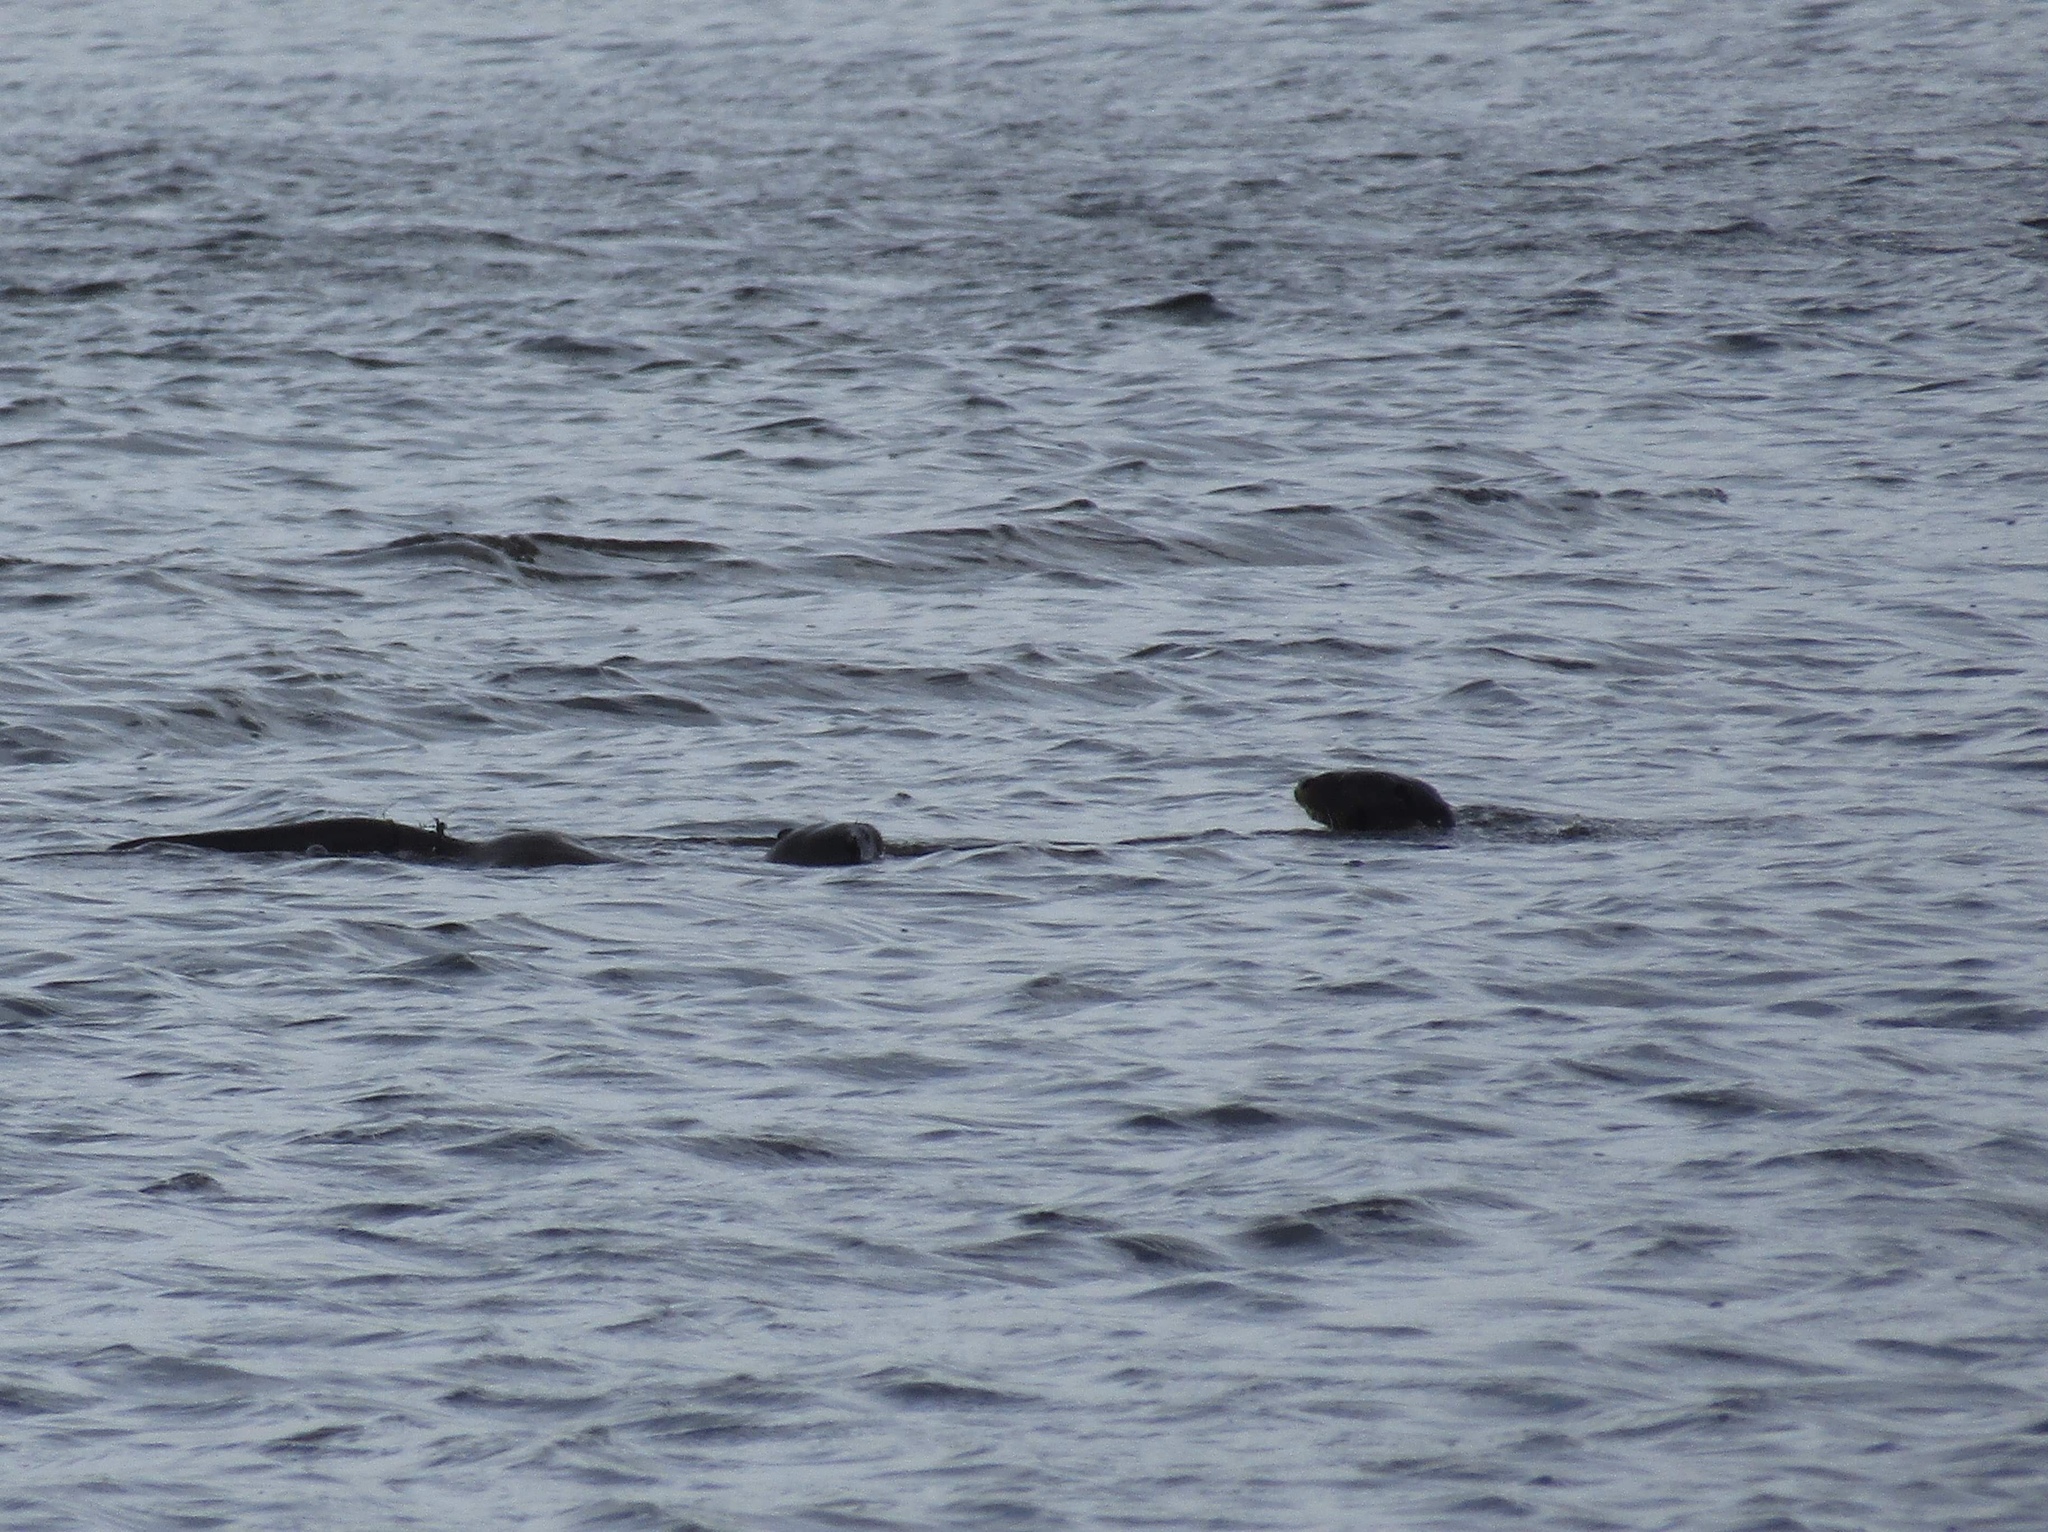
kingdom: Animalia
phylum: Chordata
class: Mammalia
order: Carnivora
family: Mustelidae
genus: Lutra
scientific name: Lutra lutra
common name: European otter
